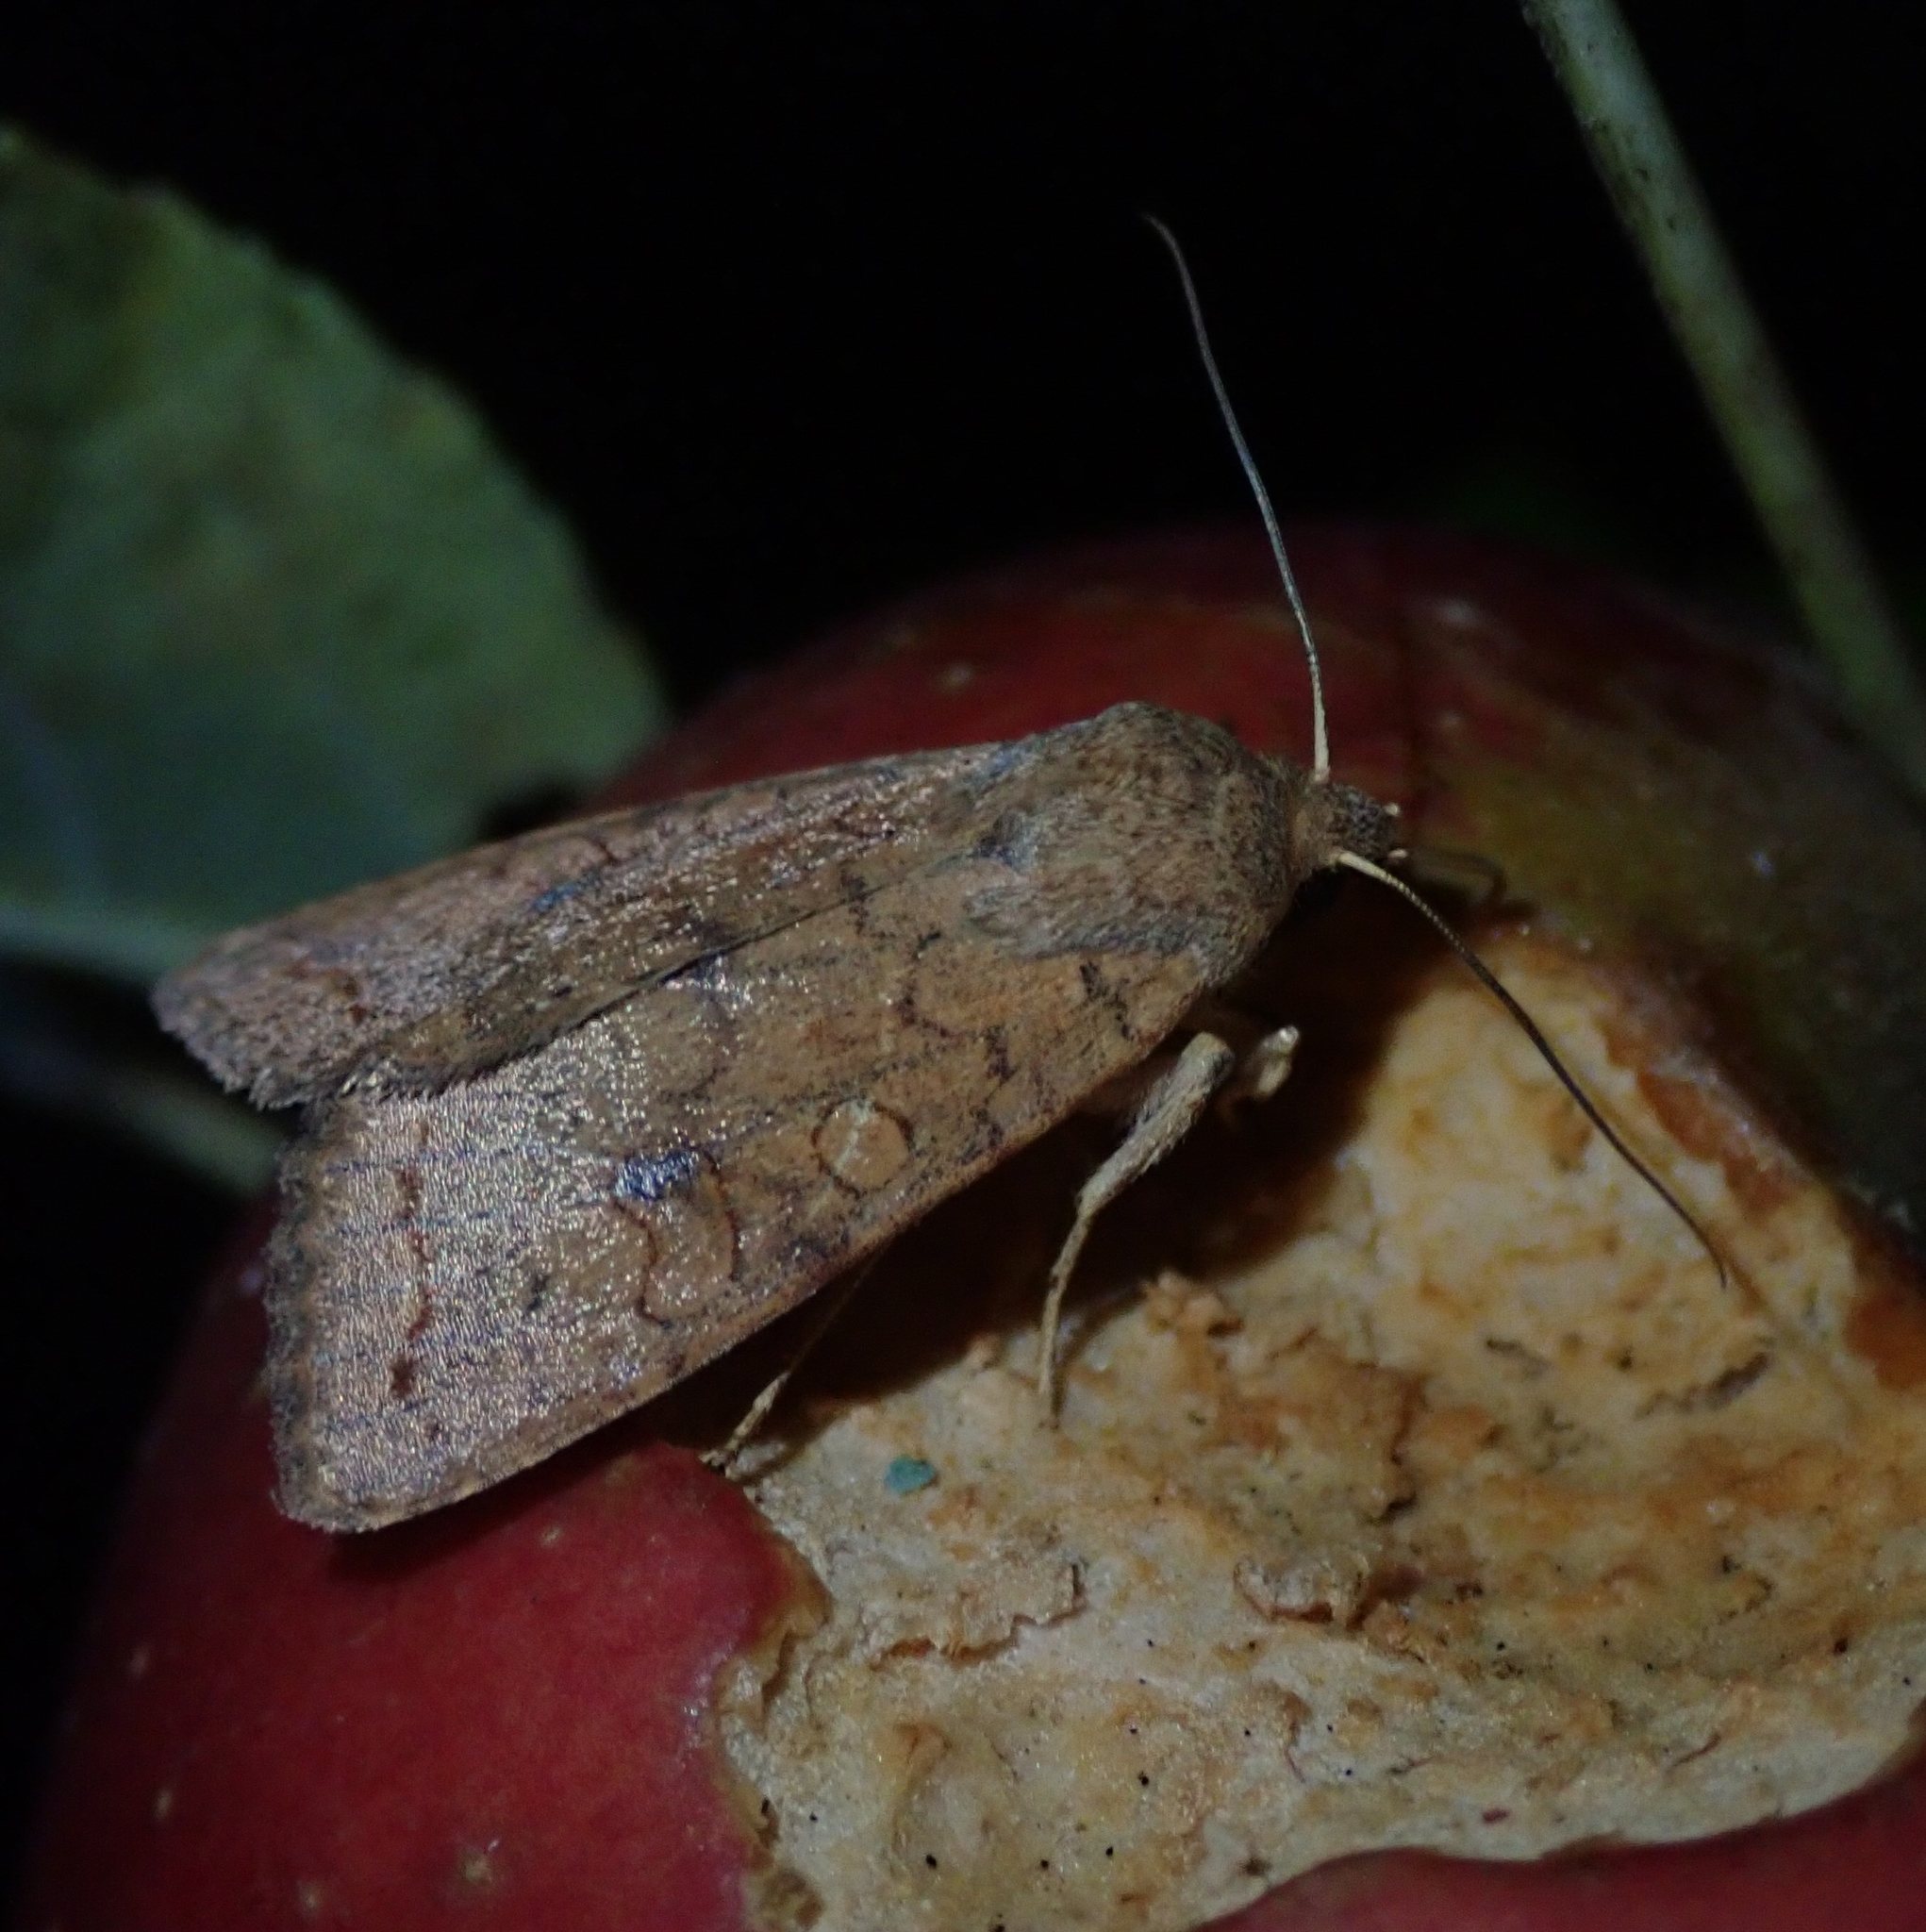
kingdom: Animalia
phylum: Arthropoda
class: Insecta
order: Lepidoptera
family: Noctuidae
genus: Sunira
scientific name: Sunira circellaris
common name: Brick
